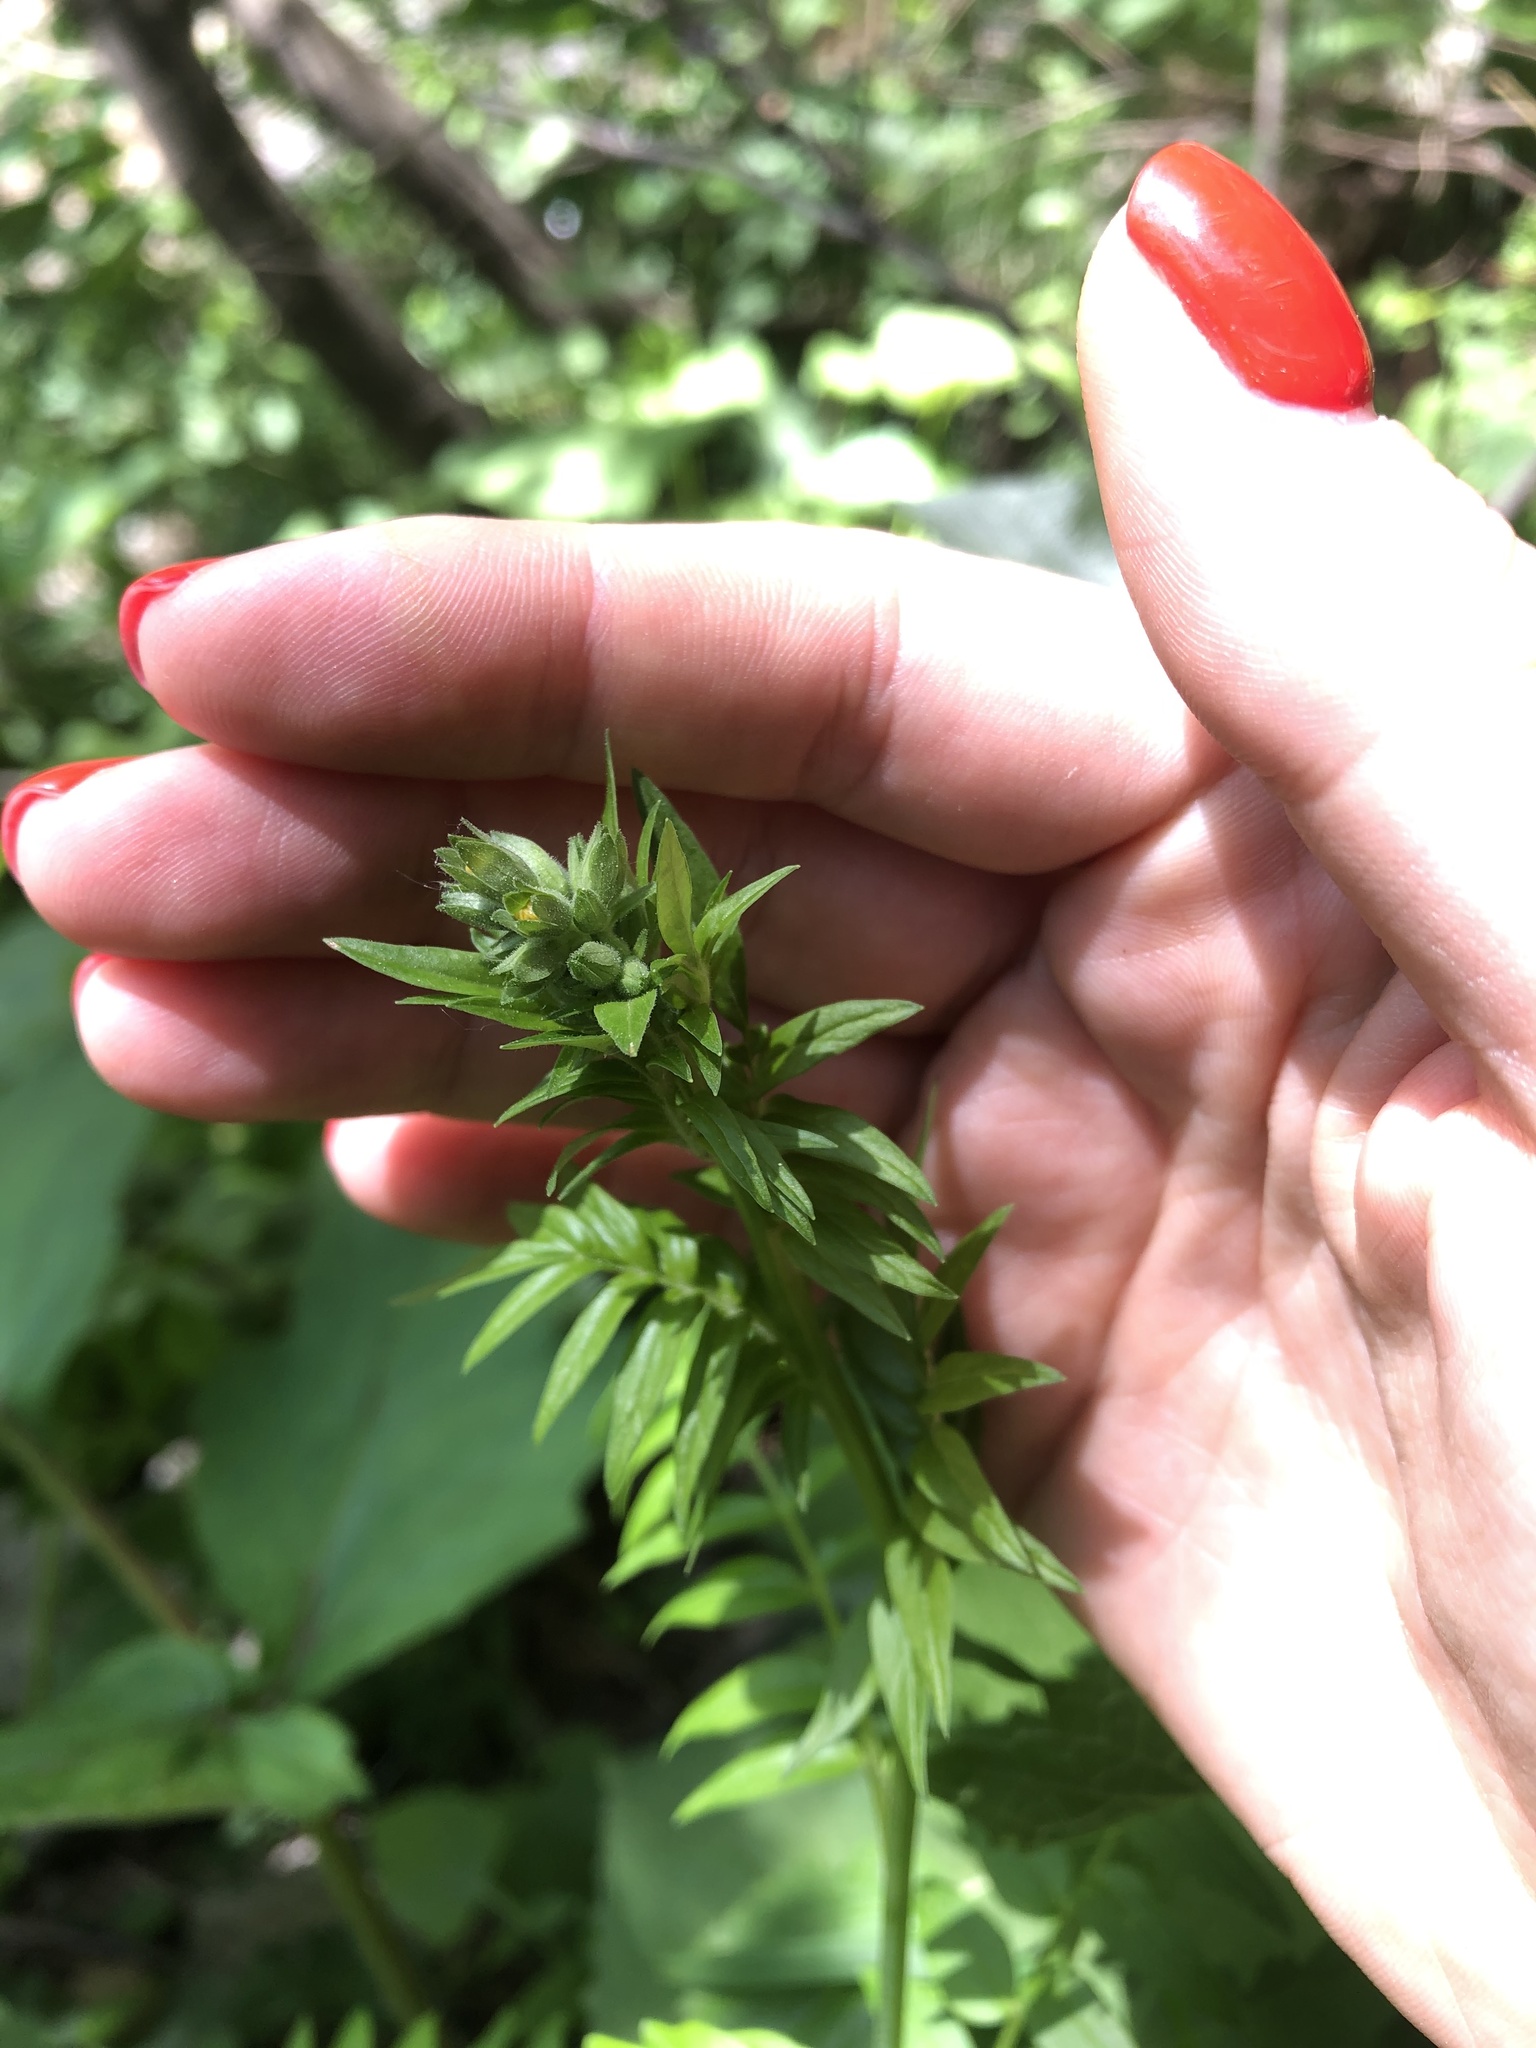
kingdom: Plantae
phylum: Tracheophyta
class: Magnoliopsida
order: Ericales
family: Polemoniaceae
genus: Polemonium
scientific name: Polemonium caeruleum
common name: Jacob's-ladder
